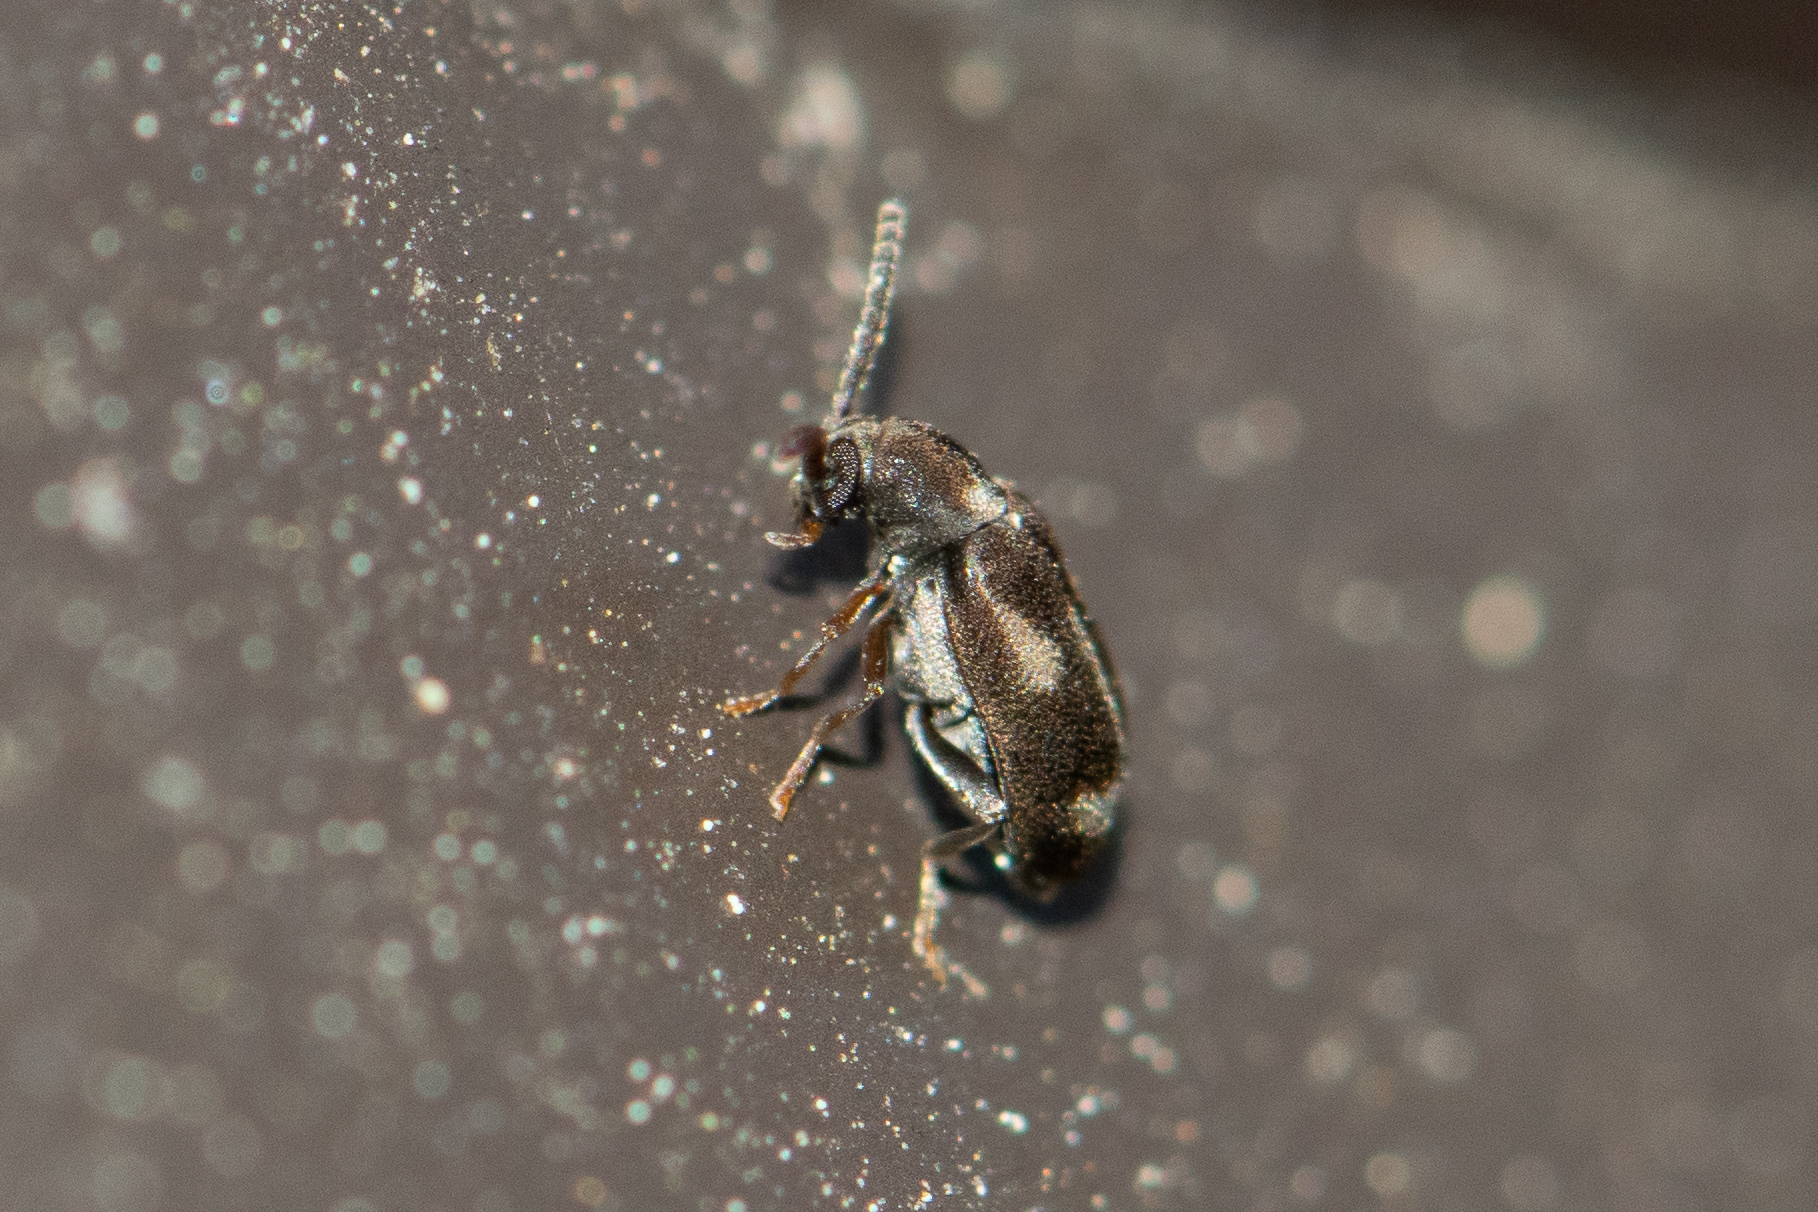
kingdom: Animalia
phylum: Arthropoda
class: Insecta
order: Coleoptera
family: Aderidae
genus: Phytobaenus
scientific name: Phytobaenus amabilis
